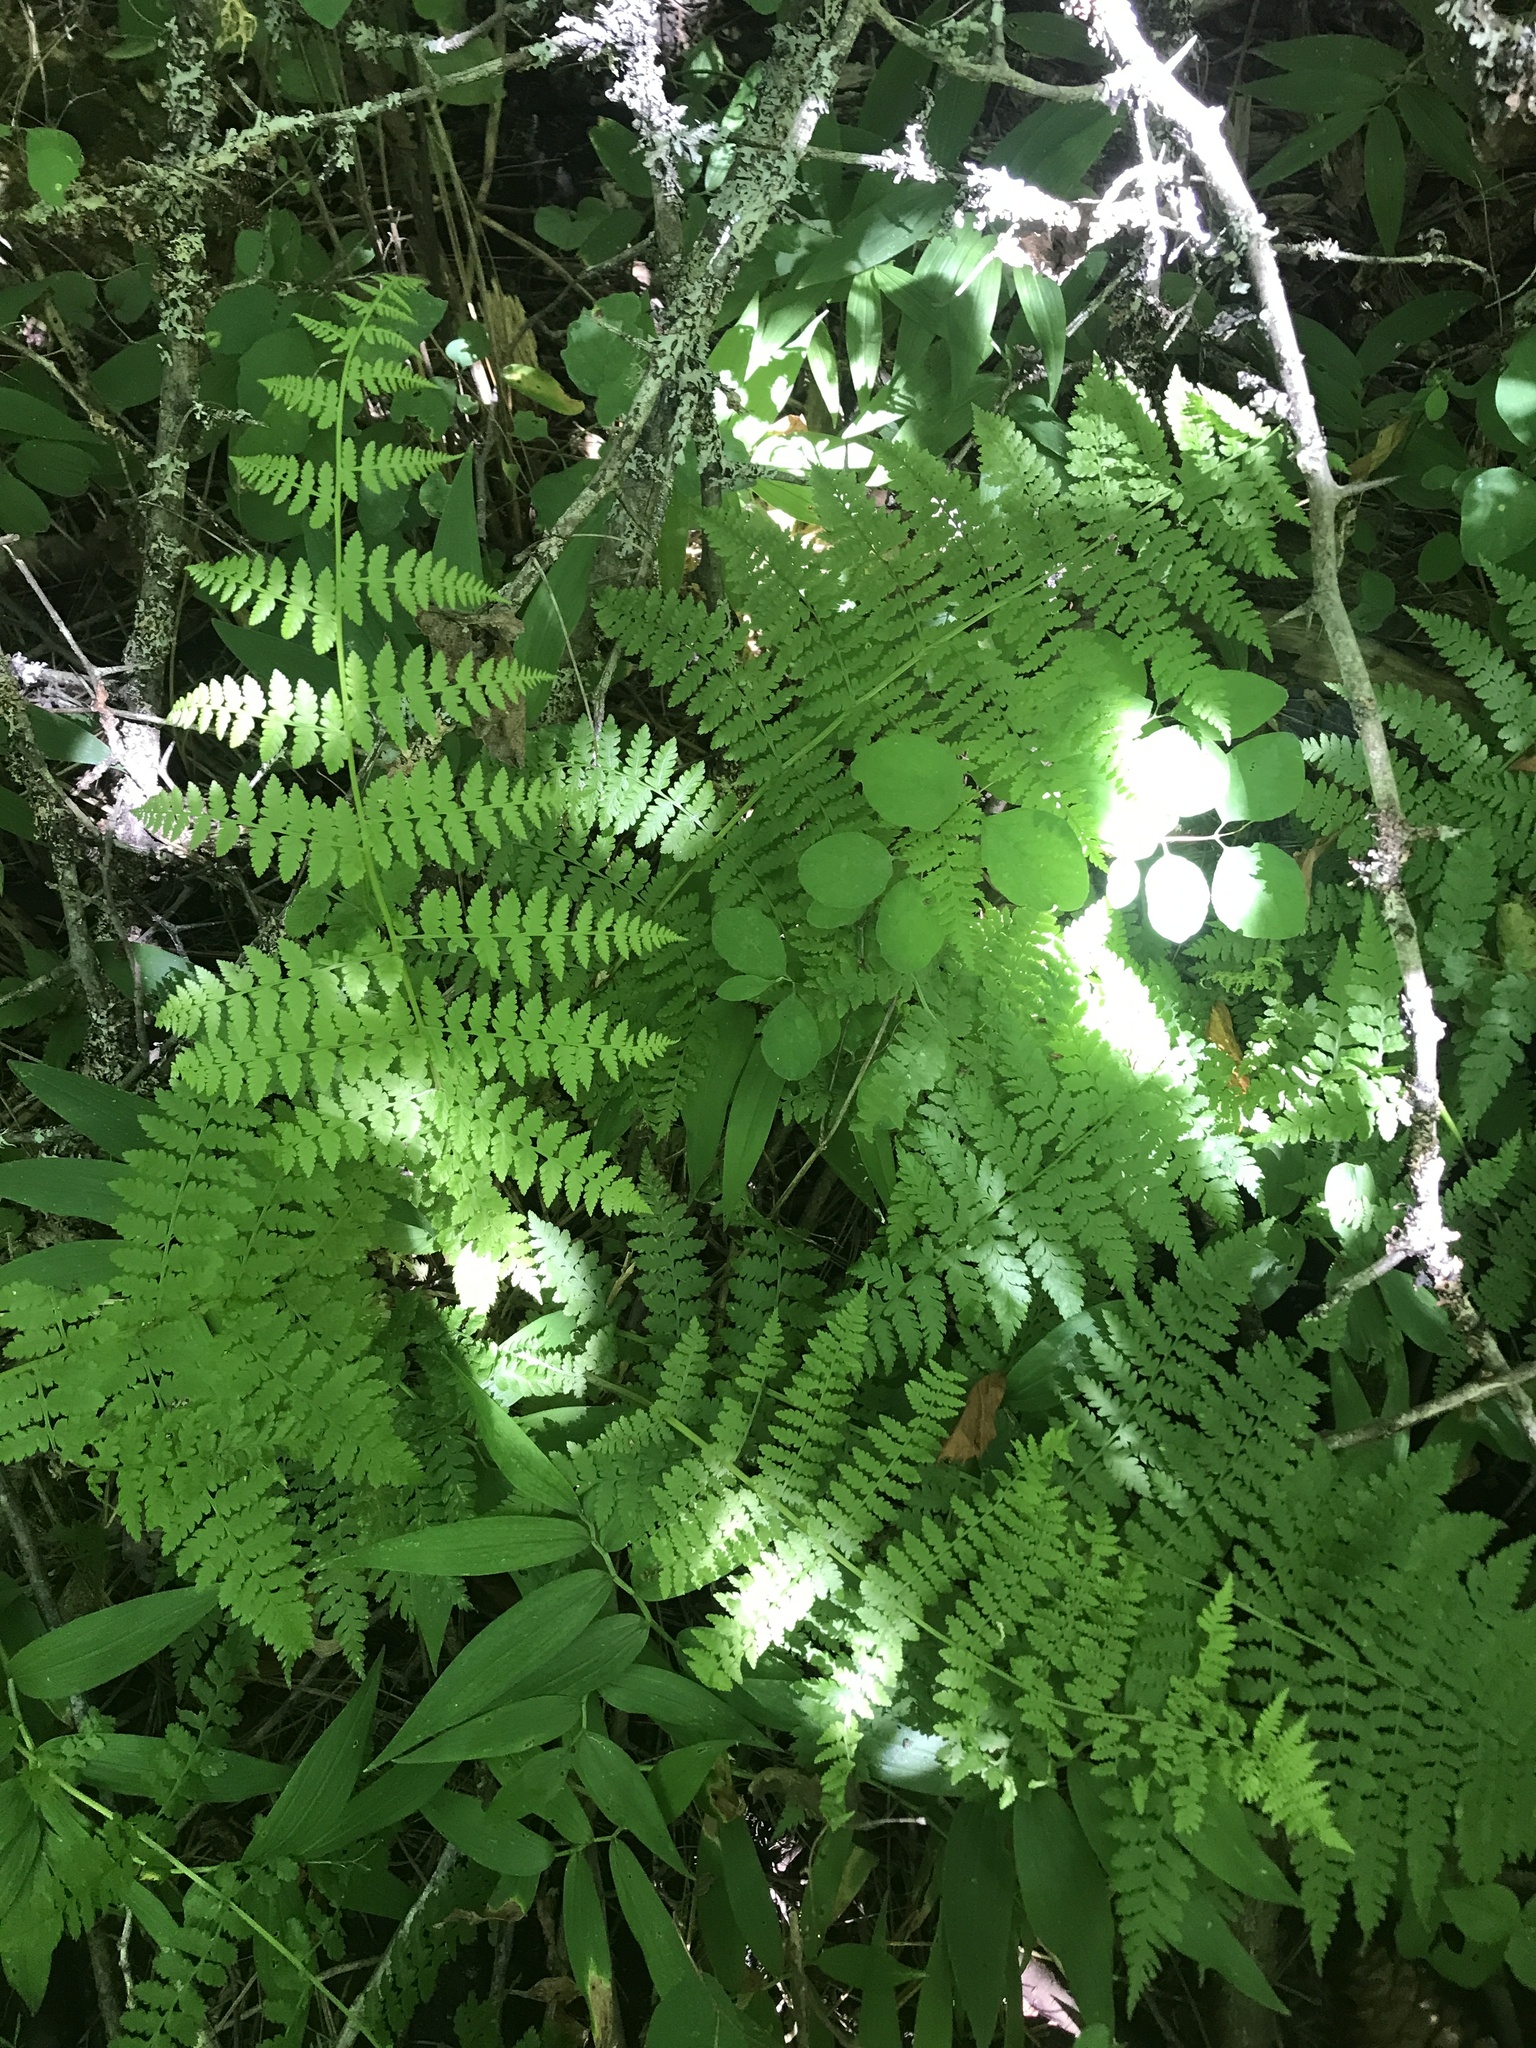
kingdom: Plantae
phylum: Tracheophyta
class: Polypodiopsida
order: Polypodiales
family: Athyriaceae
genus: Athyrium
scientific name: Athyrium filix-femina
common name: Lady fern
